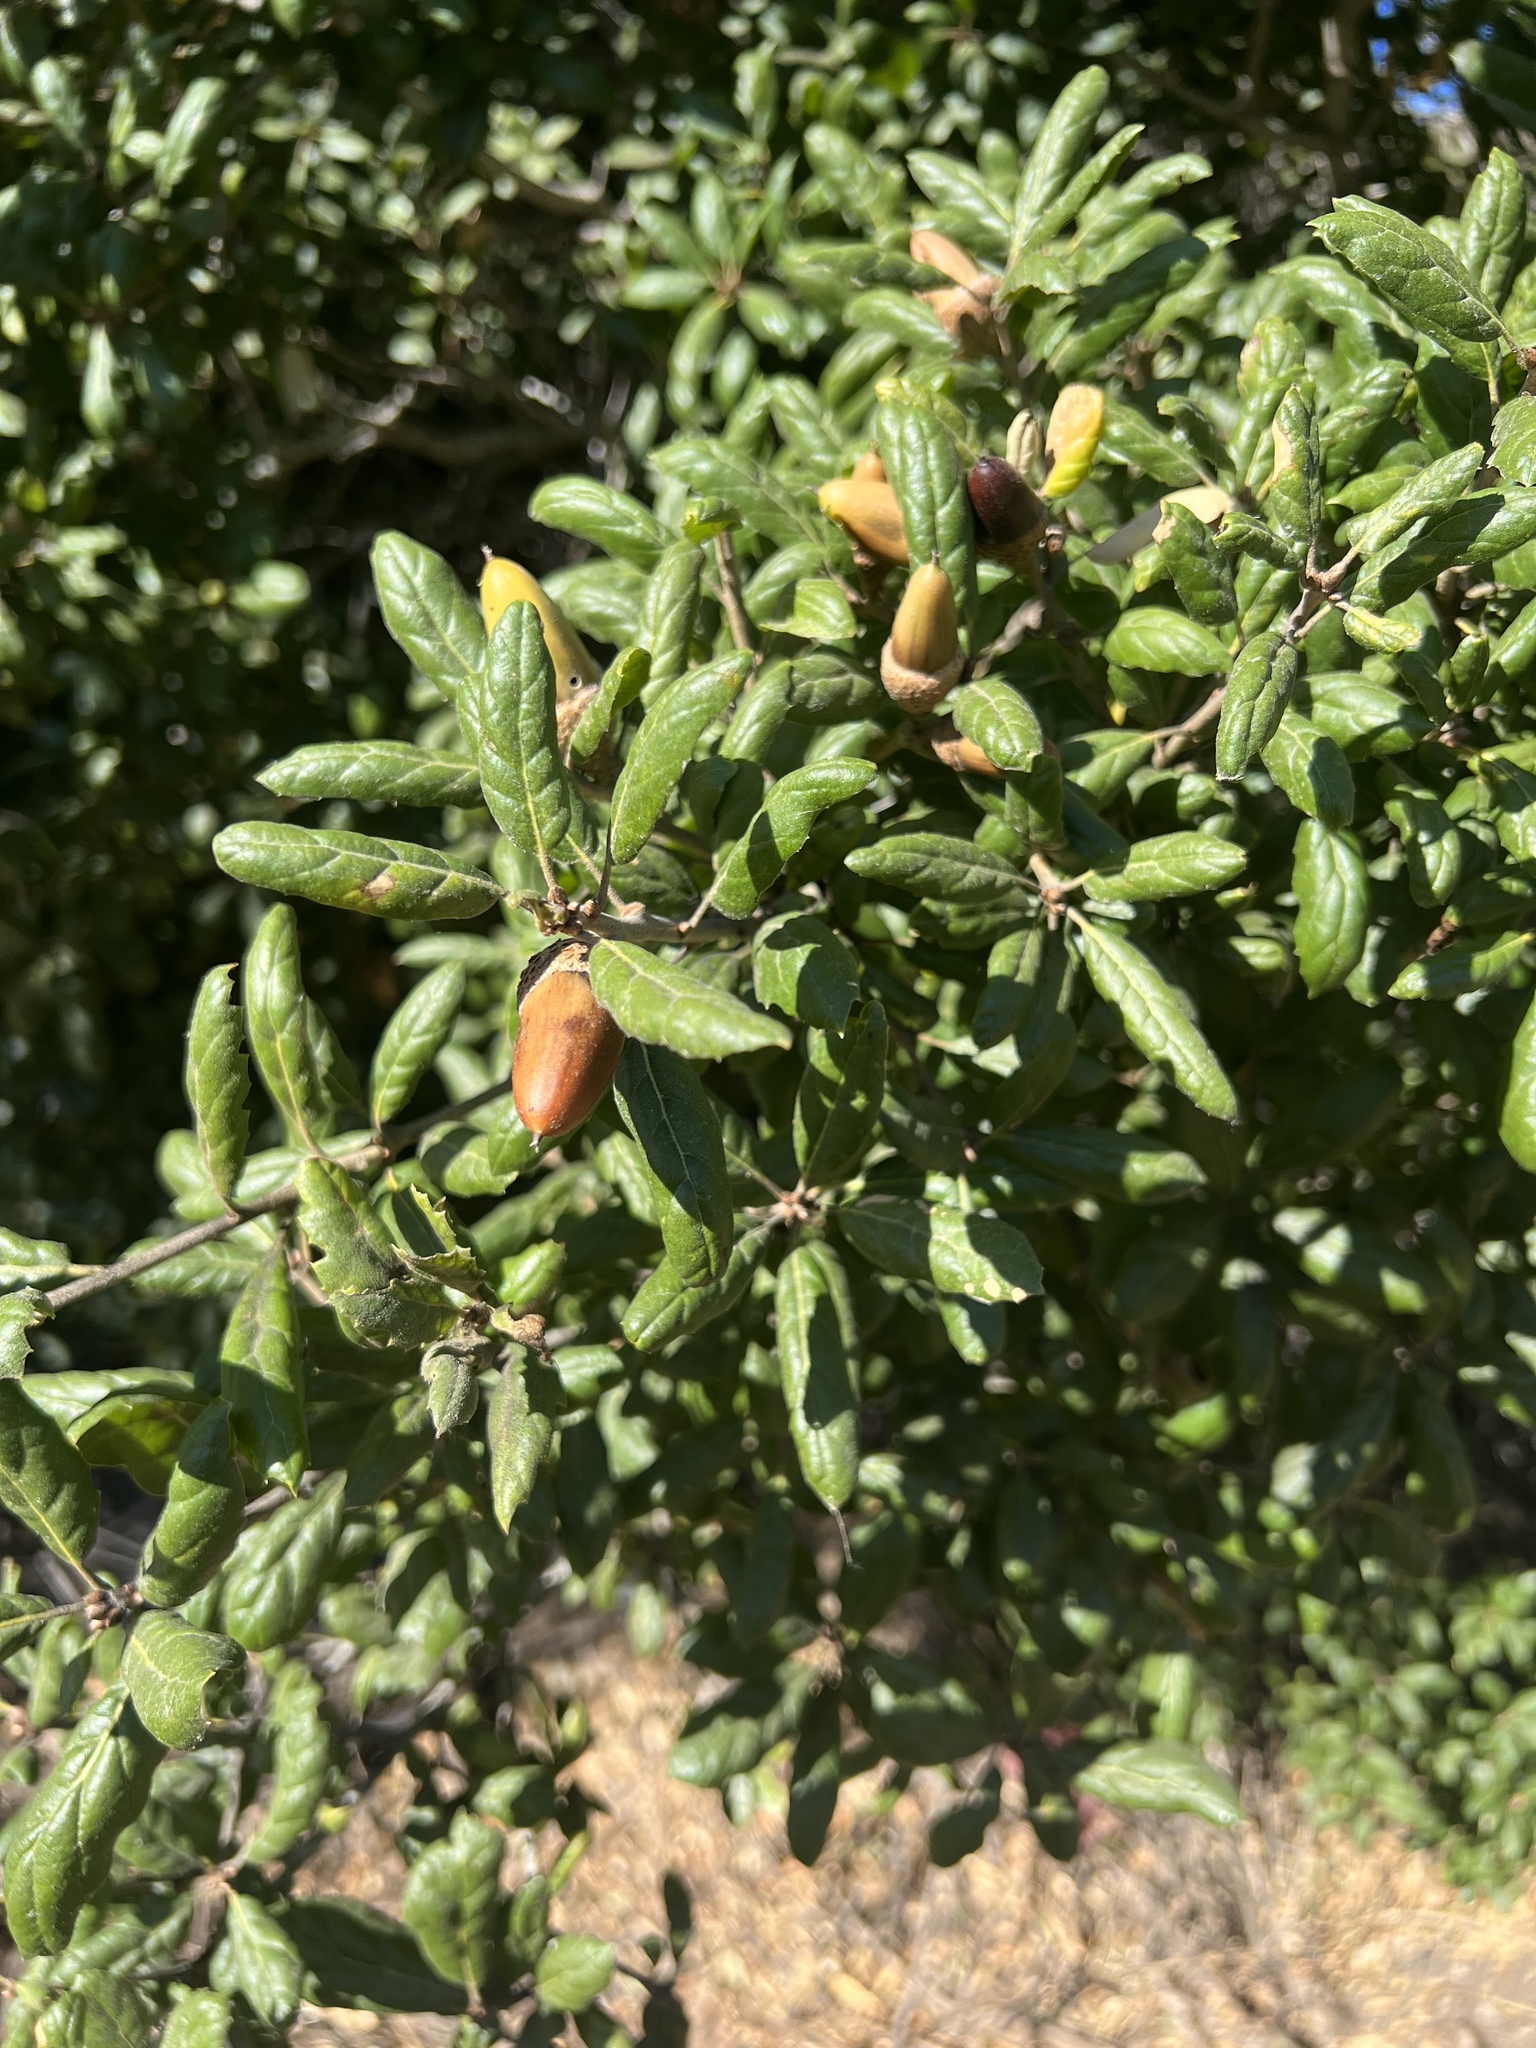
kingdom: Plantae
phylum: Tracheophyta
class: Magnoliopsida
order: Fagales
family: Fagaceae
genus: Quercus
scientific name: Quercus agrifolia
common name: California live oak
